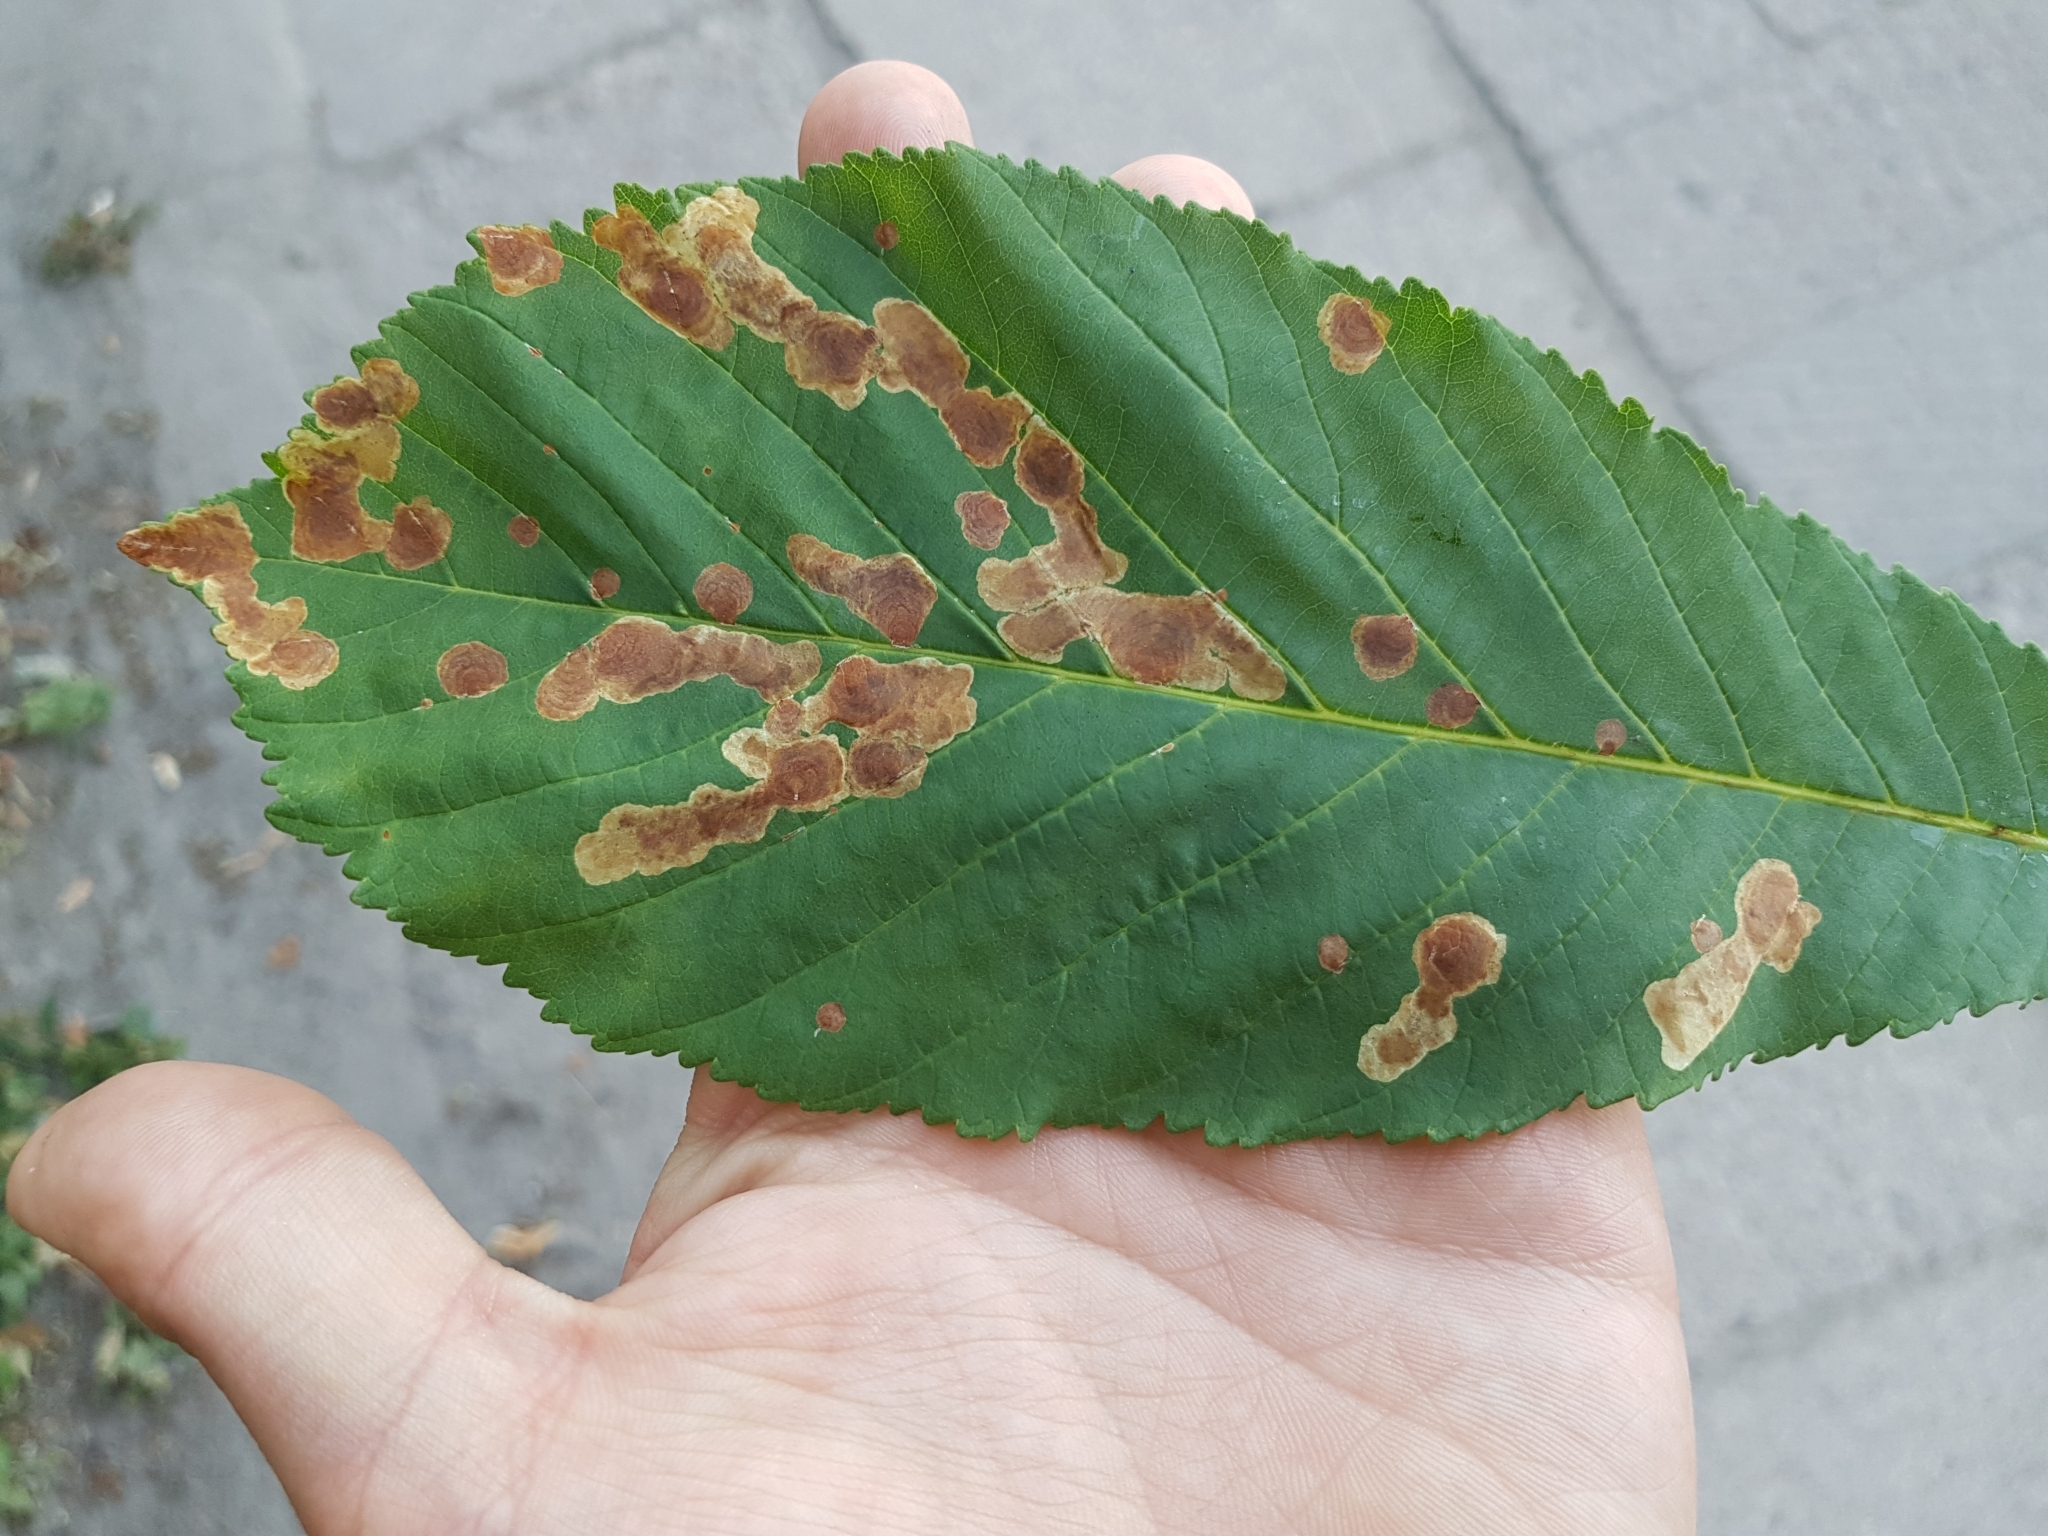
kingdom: Animalia
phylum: Arthropoda
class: Insecta
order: Lepidoptera
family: Gracillariidae
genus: Cameraria
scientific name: Cameraria ohridella
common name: Horse-chestnut leaf-miner
